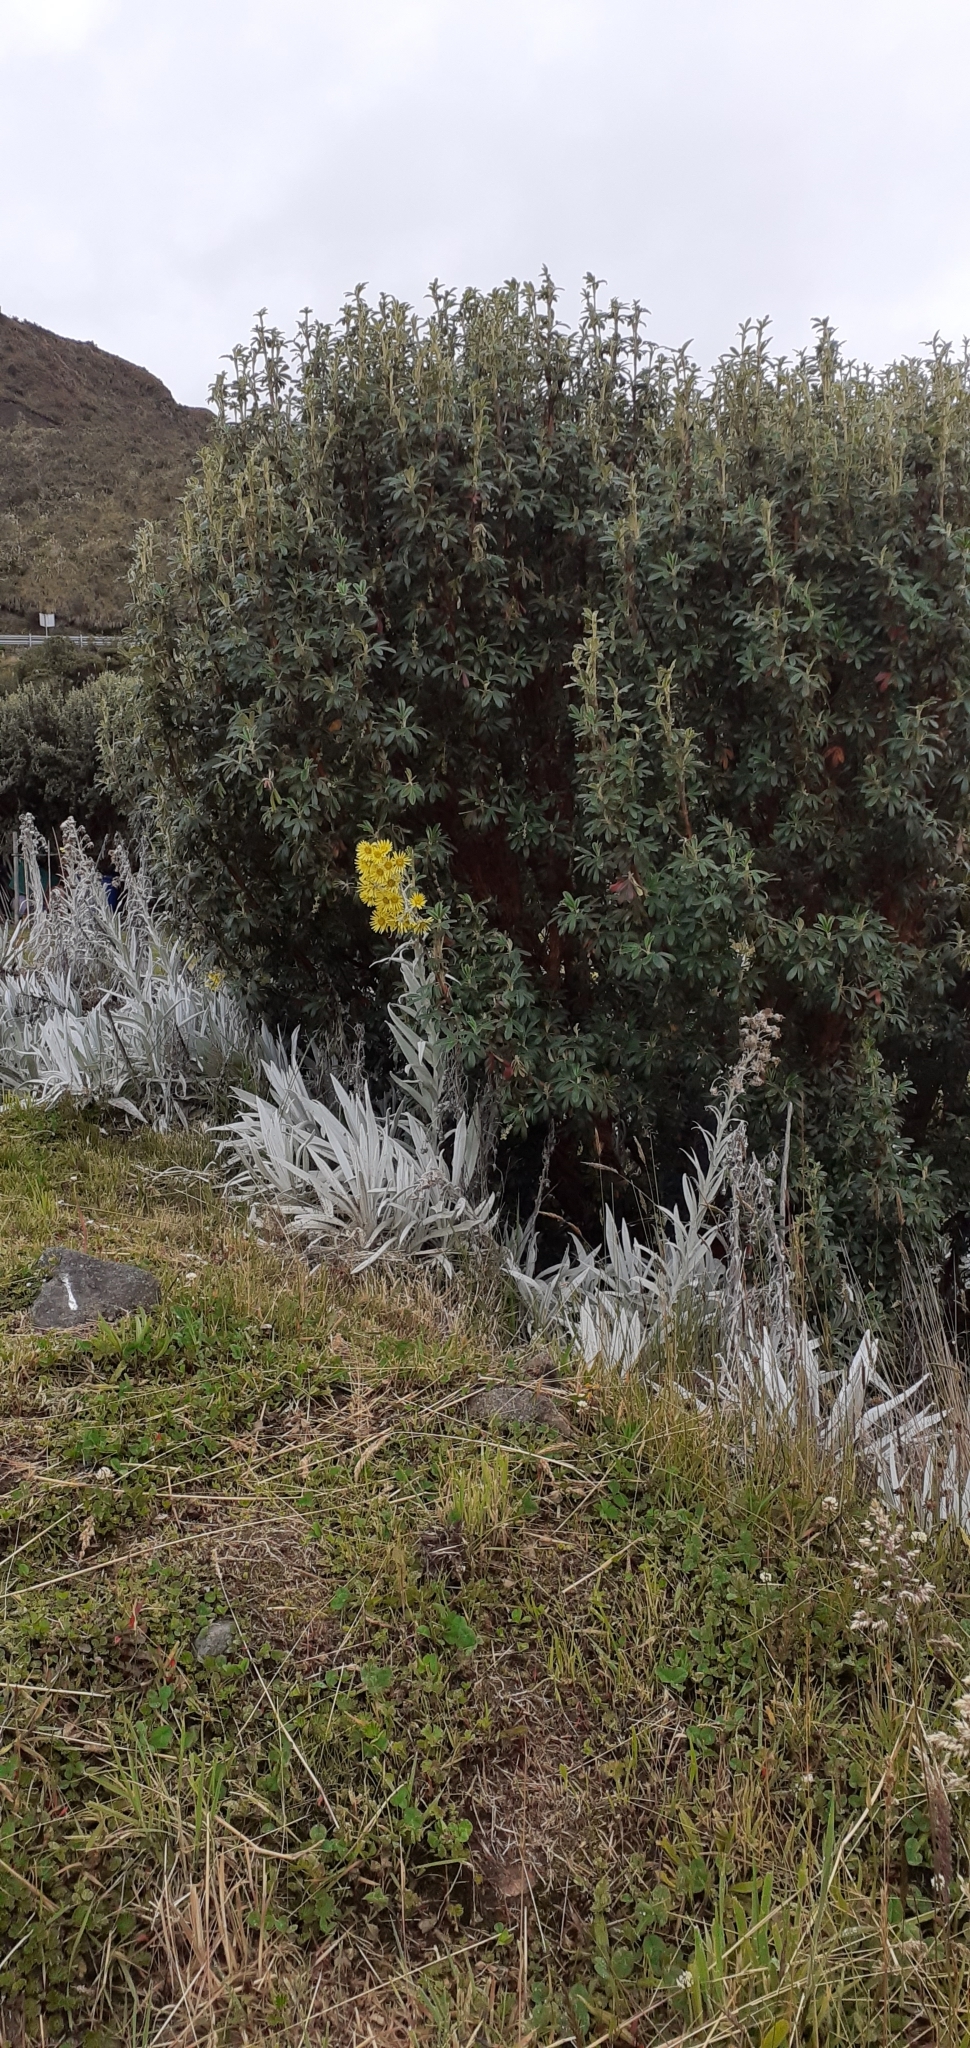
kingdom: Plantae
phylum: Tracheophyta
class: Magnoliopsida
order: Asterales
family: Asteraceae
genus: Senecio
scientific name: Senecio niveoaureus
